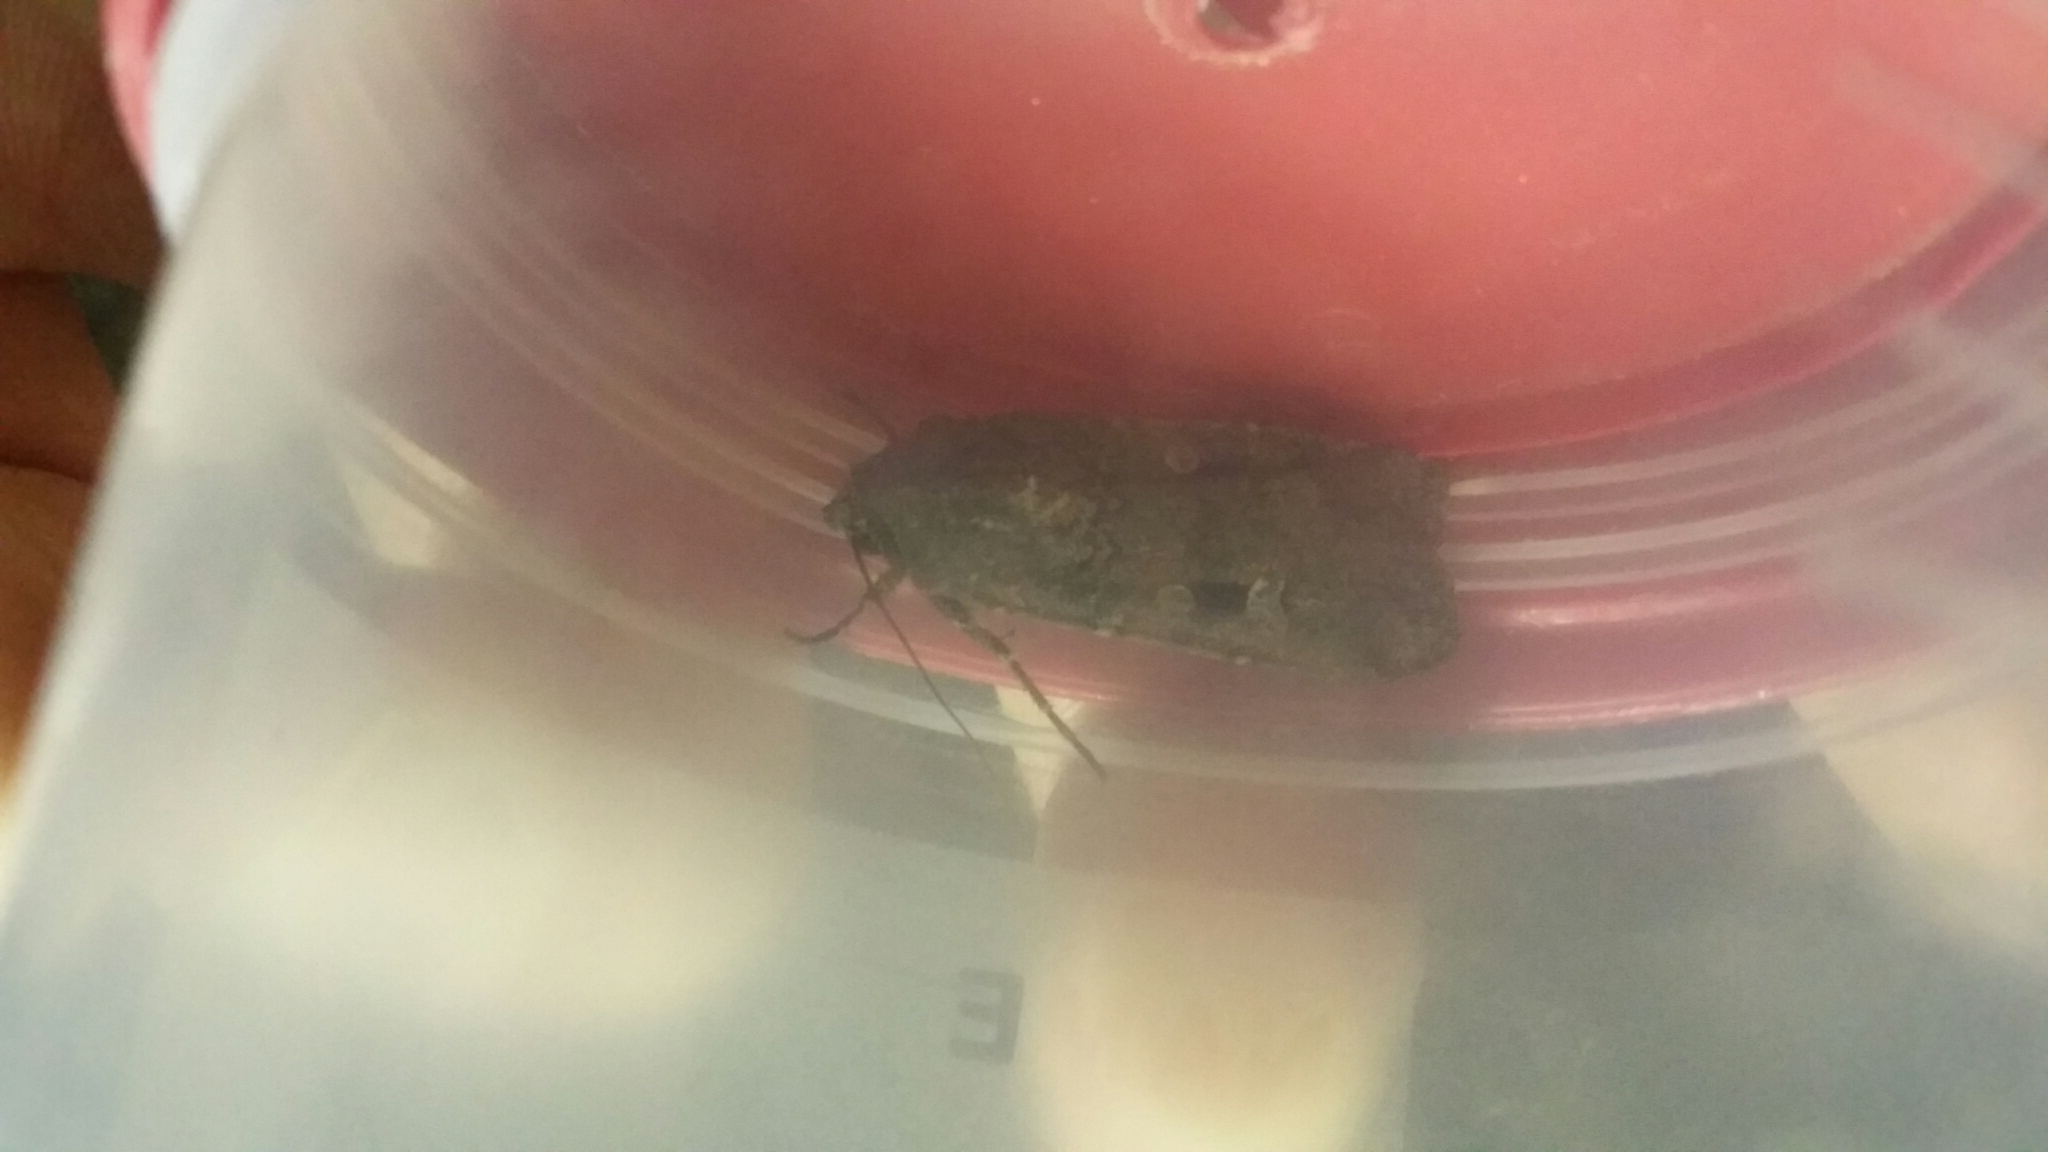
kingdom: Animalia
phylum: Arthropoda
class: Insecta
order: Lepidoptera
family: Noctuidae
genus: Agrotis
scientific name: Agrotis infusa
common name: Bogong moth
